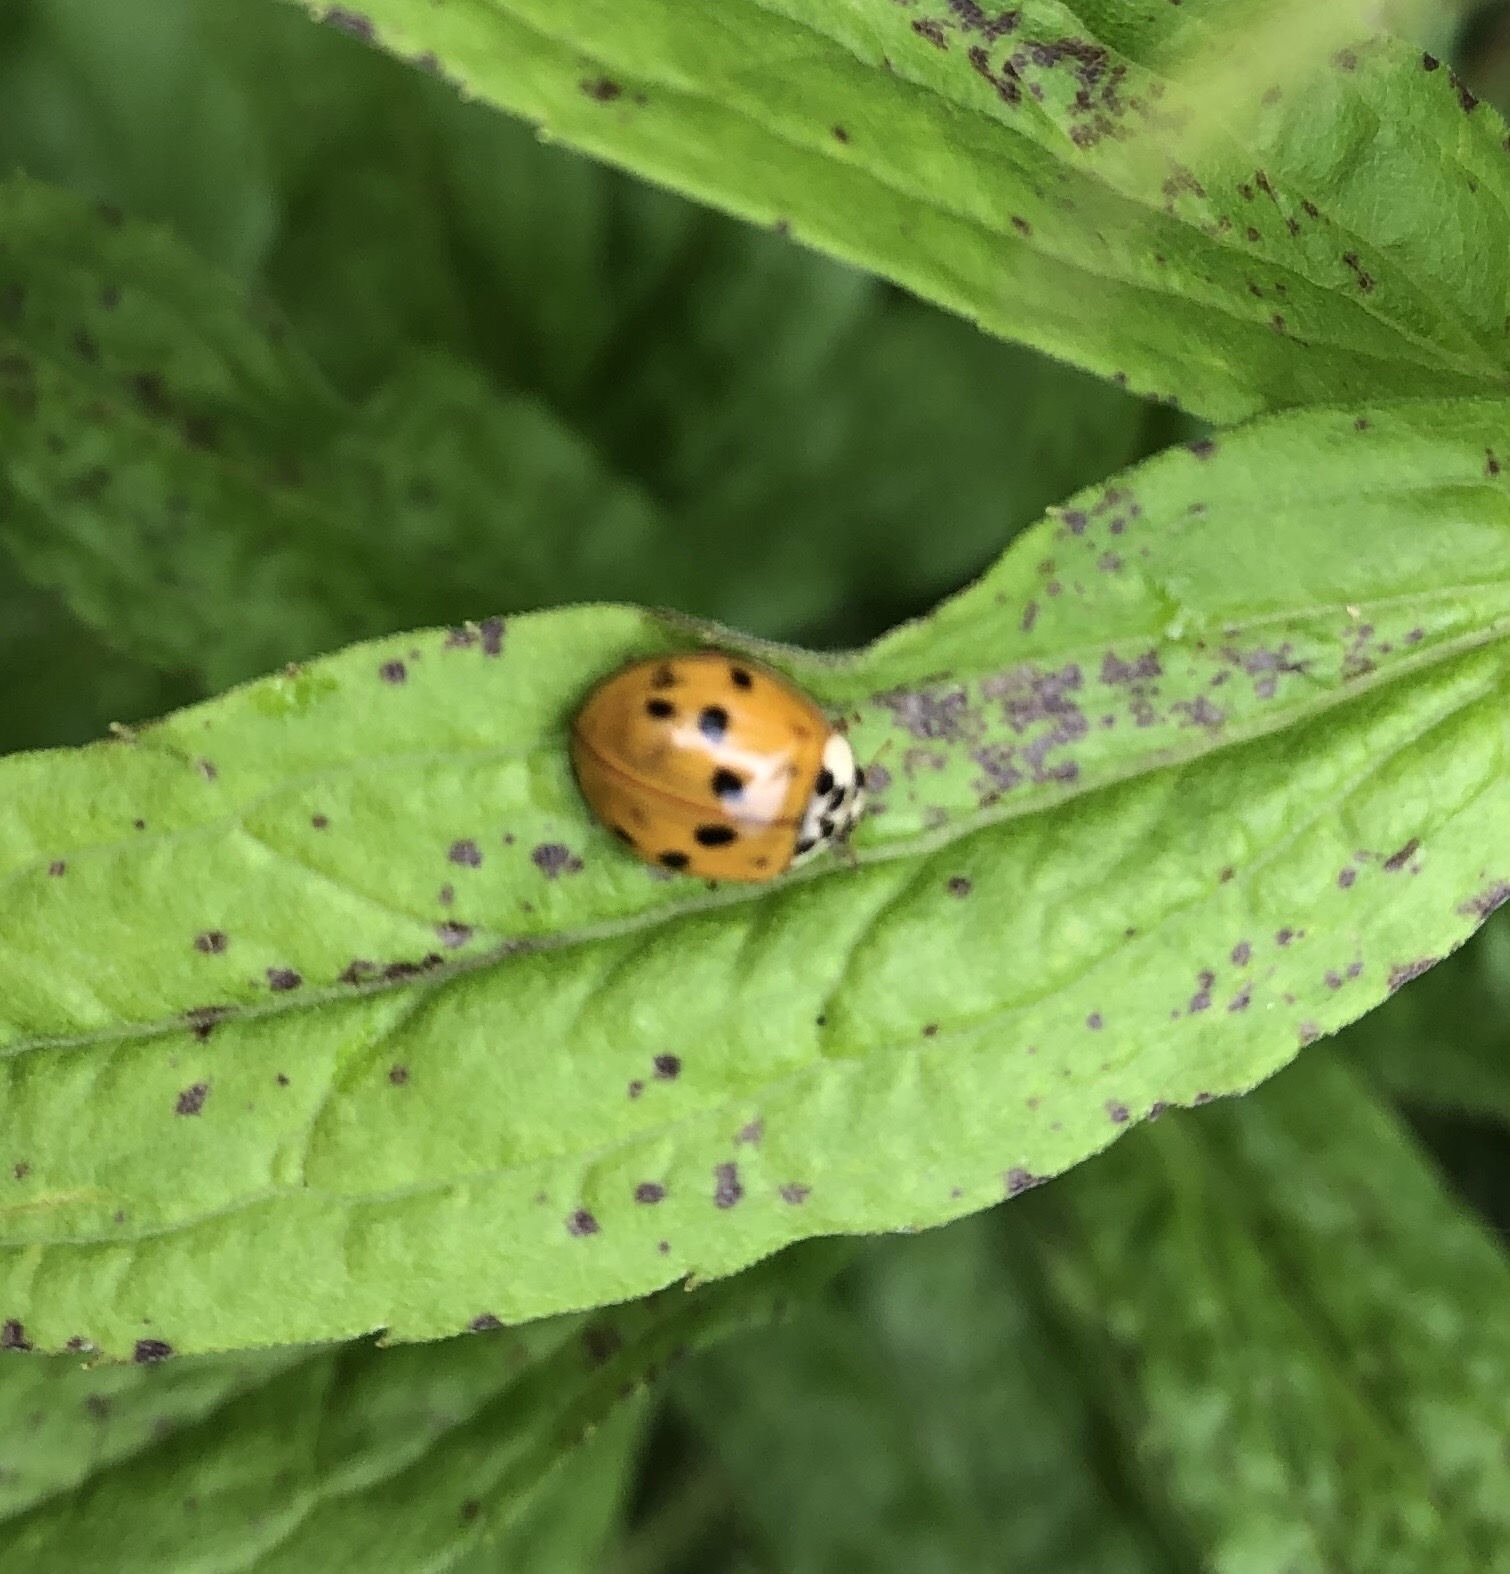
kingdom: Animalia
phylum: Arthropoda
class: Insecta
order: Coleoptera
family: Coccinellidae
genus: Harmonia
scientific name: Harmonia axyridis
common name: Harlequin ladybird
